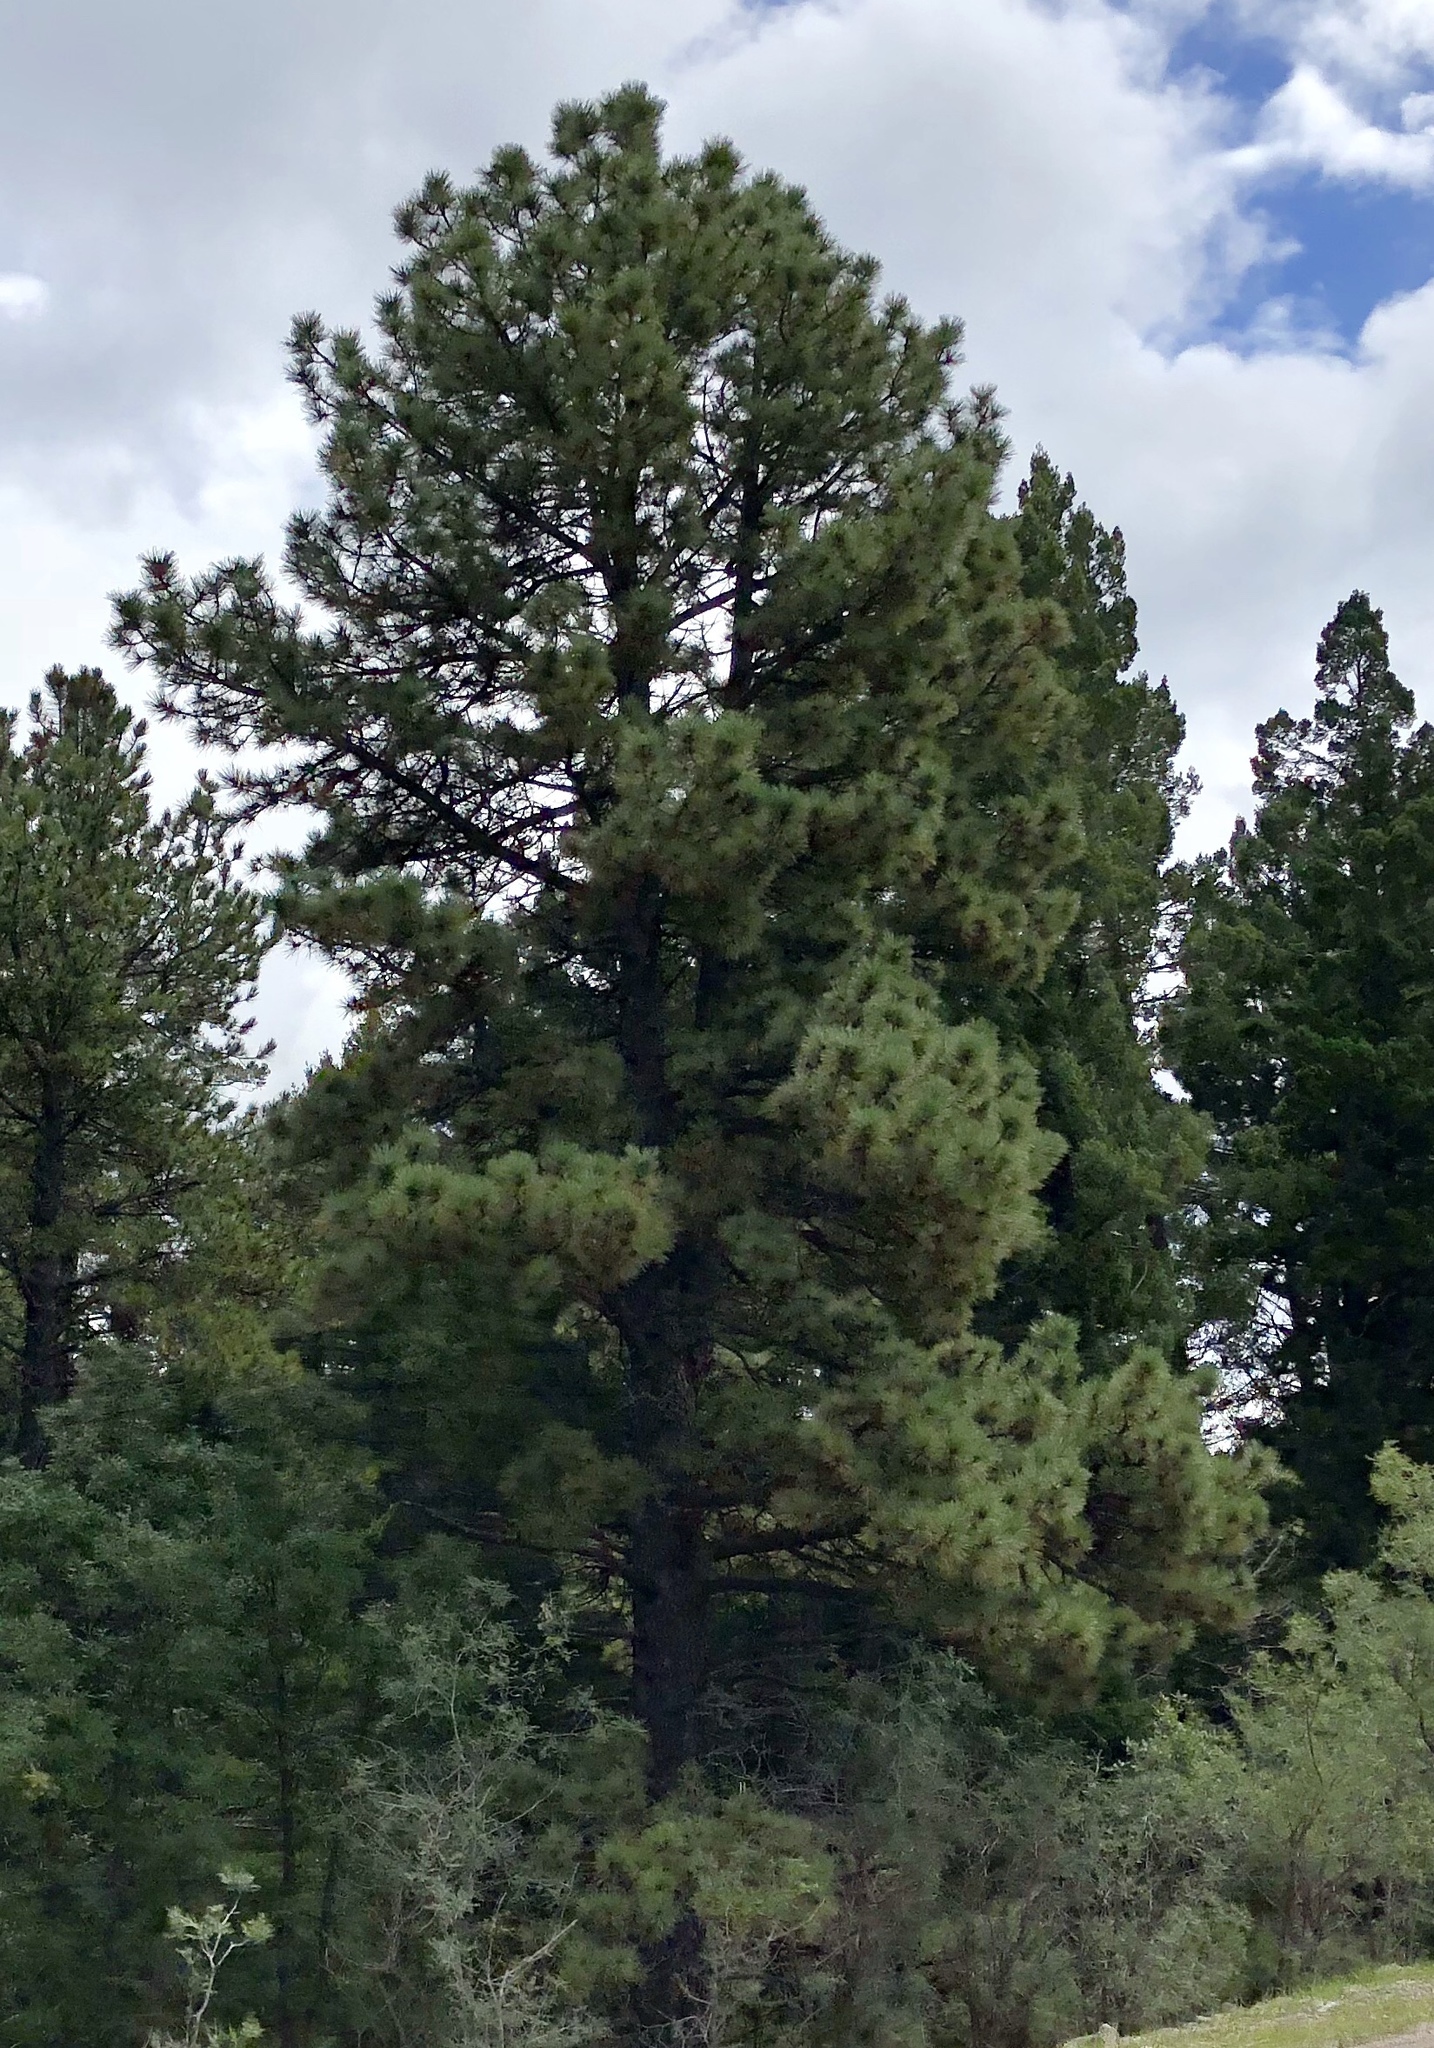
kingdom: Plantae
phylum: Tracheophyta
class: Pinopsida
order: Pinales
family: Pinaceae
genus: Pinus
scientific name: Pinus ponderosa
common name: Western yellow-pine
